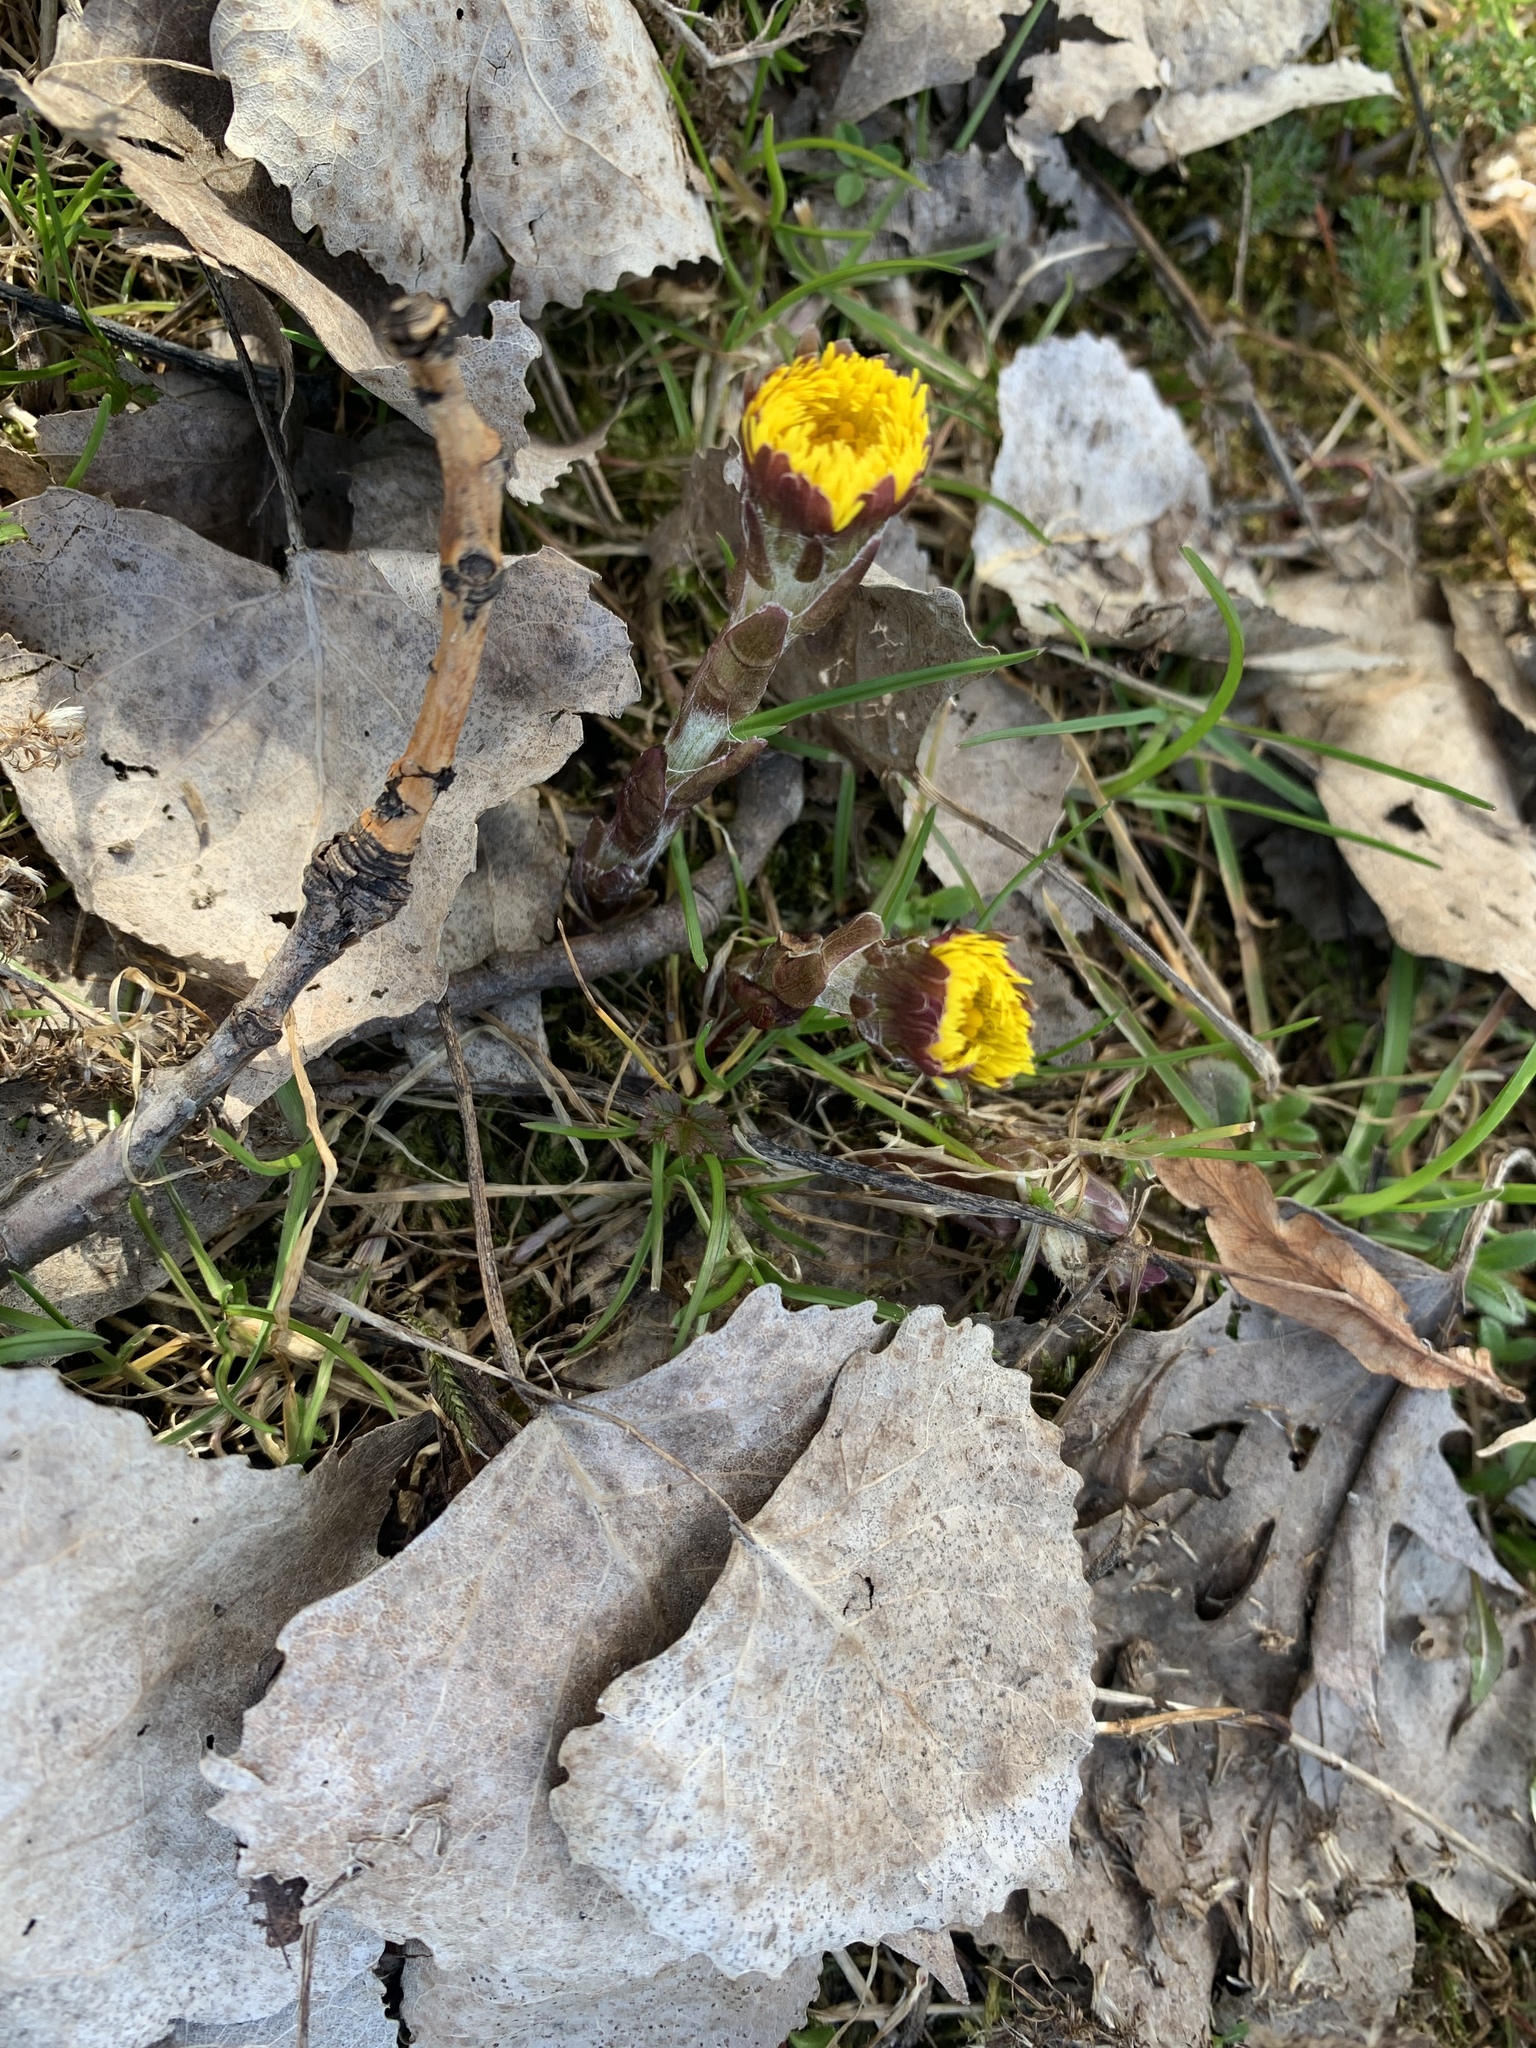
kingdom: Plantae
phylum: Tracheophyta
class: Magnoliopsida
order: Asterales
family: Asteraceae
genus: Tussilago
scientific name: Tussilago farfara
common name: Coltsfoot
